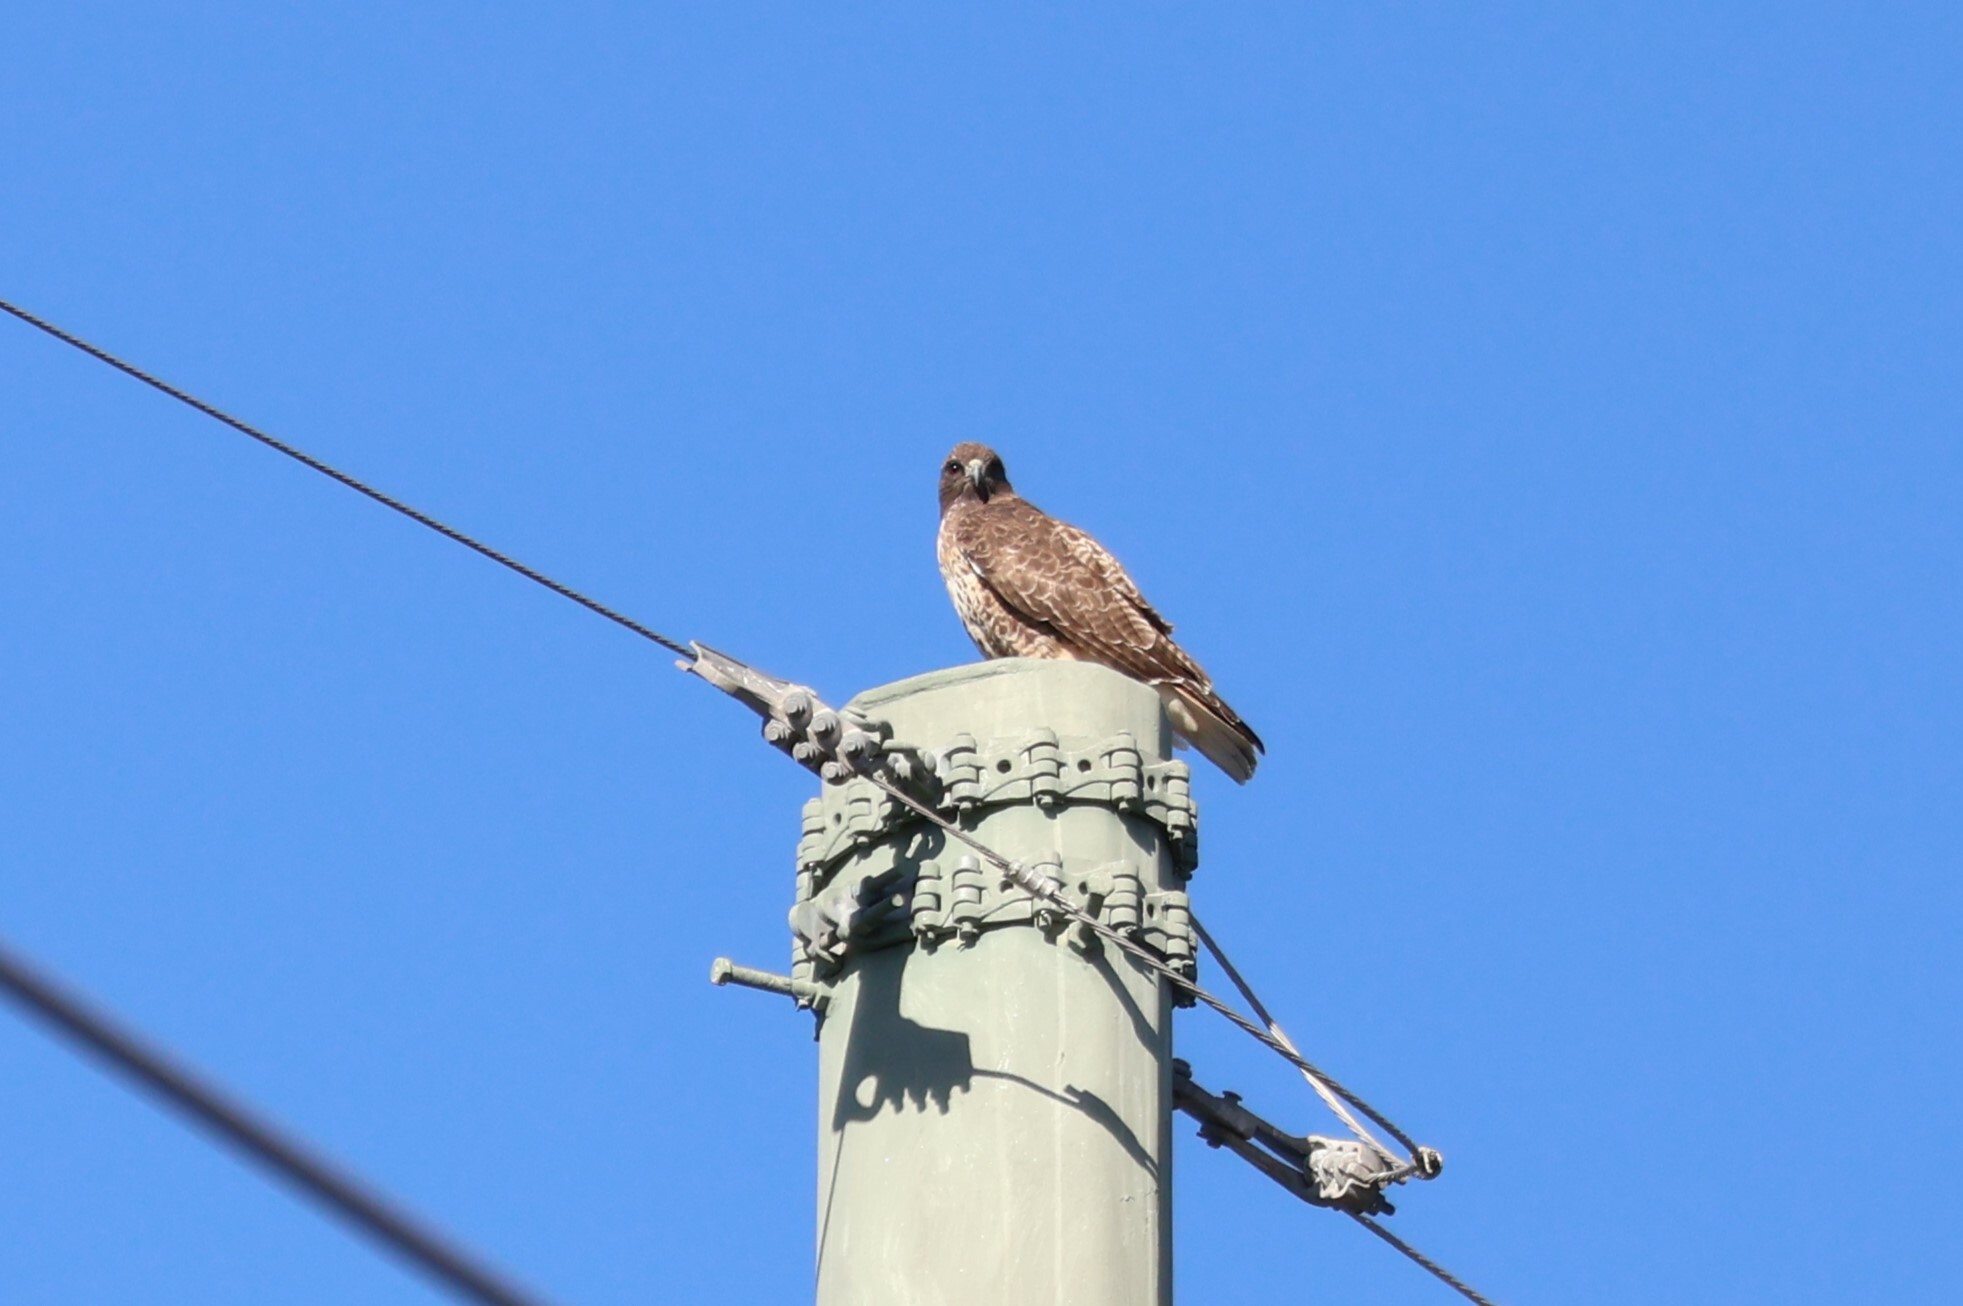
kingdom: Animalia
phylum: Chordata
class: Aves
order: Accipitriformes
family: Accipitridae
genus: Buteo
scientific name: Buteo jamaicensis
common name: Red-tailed hawk
